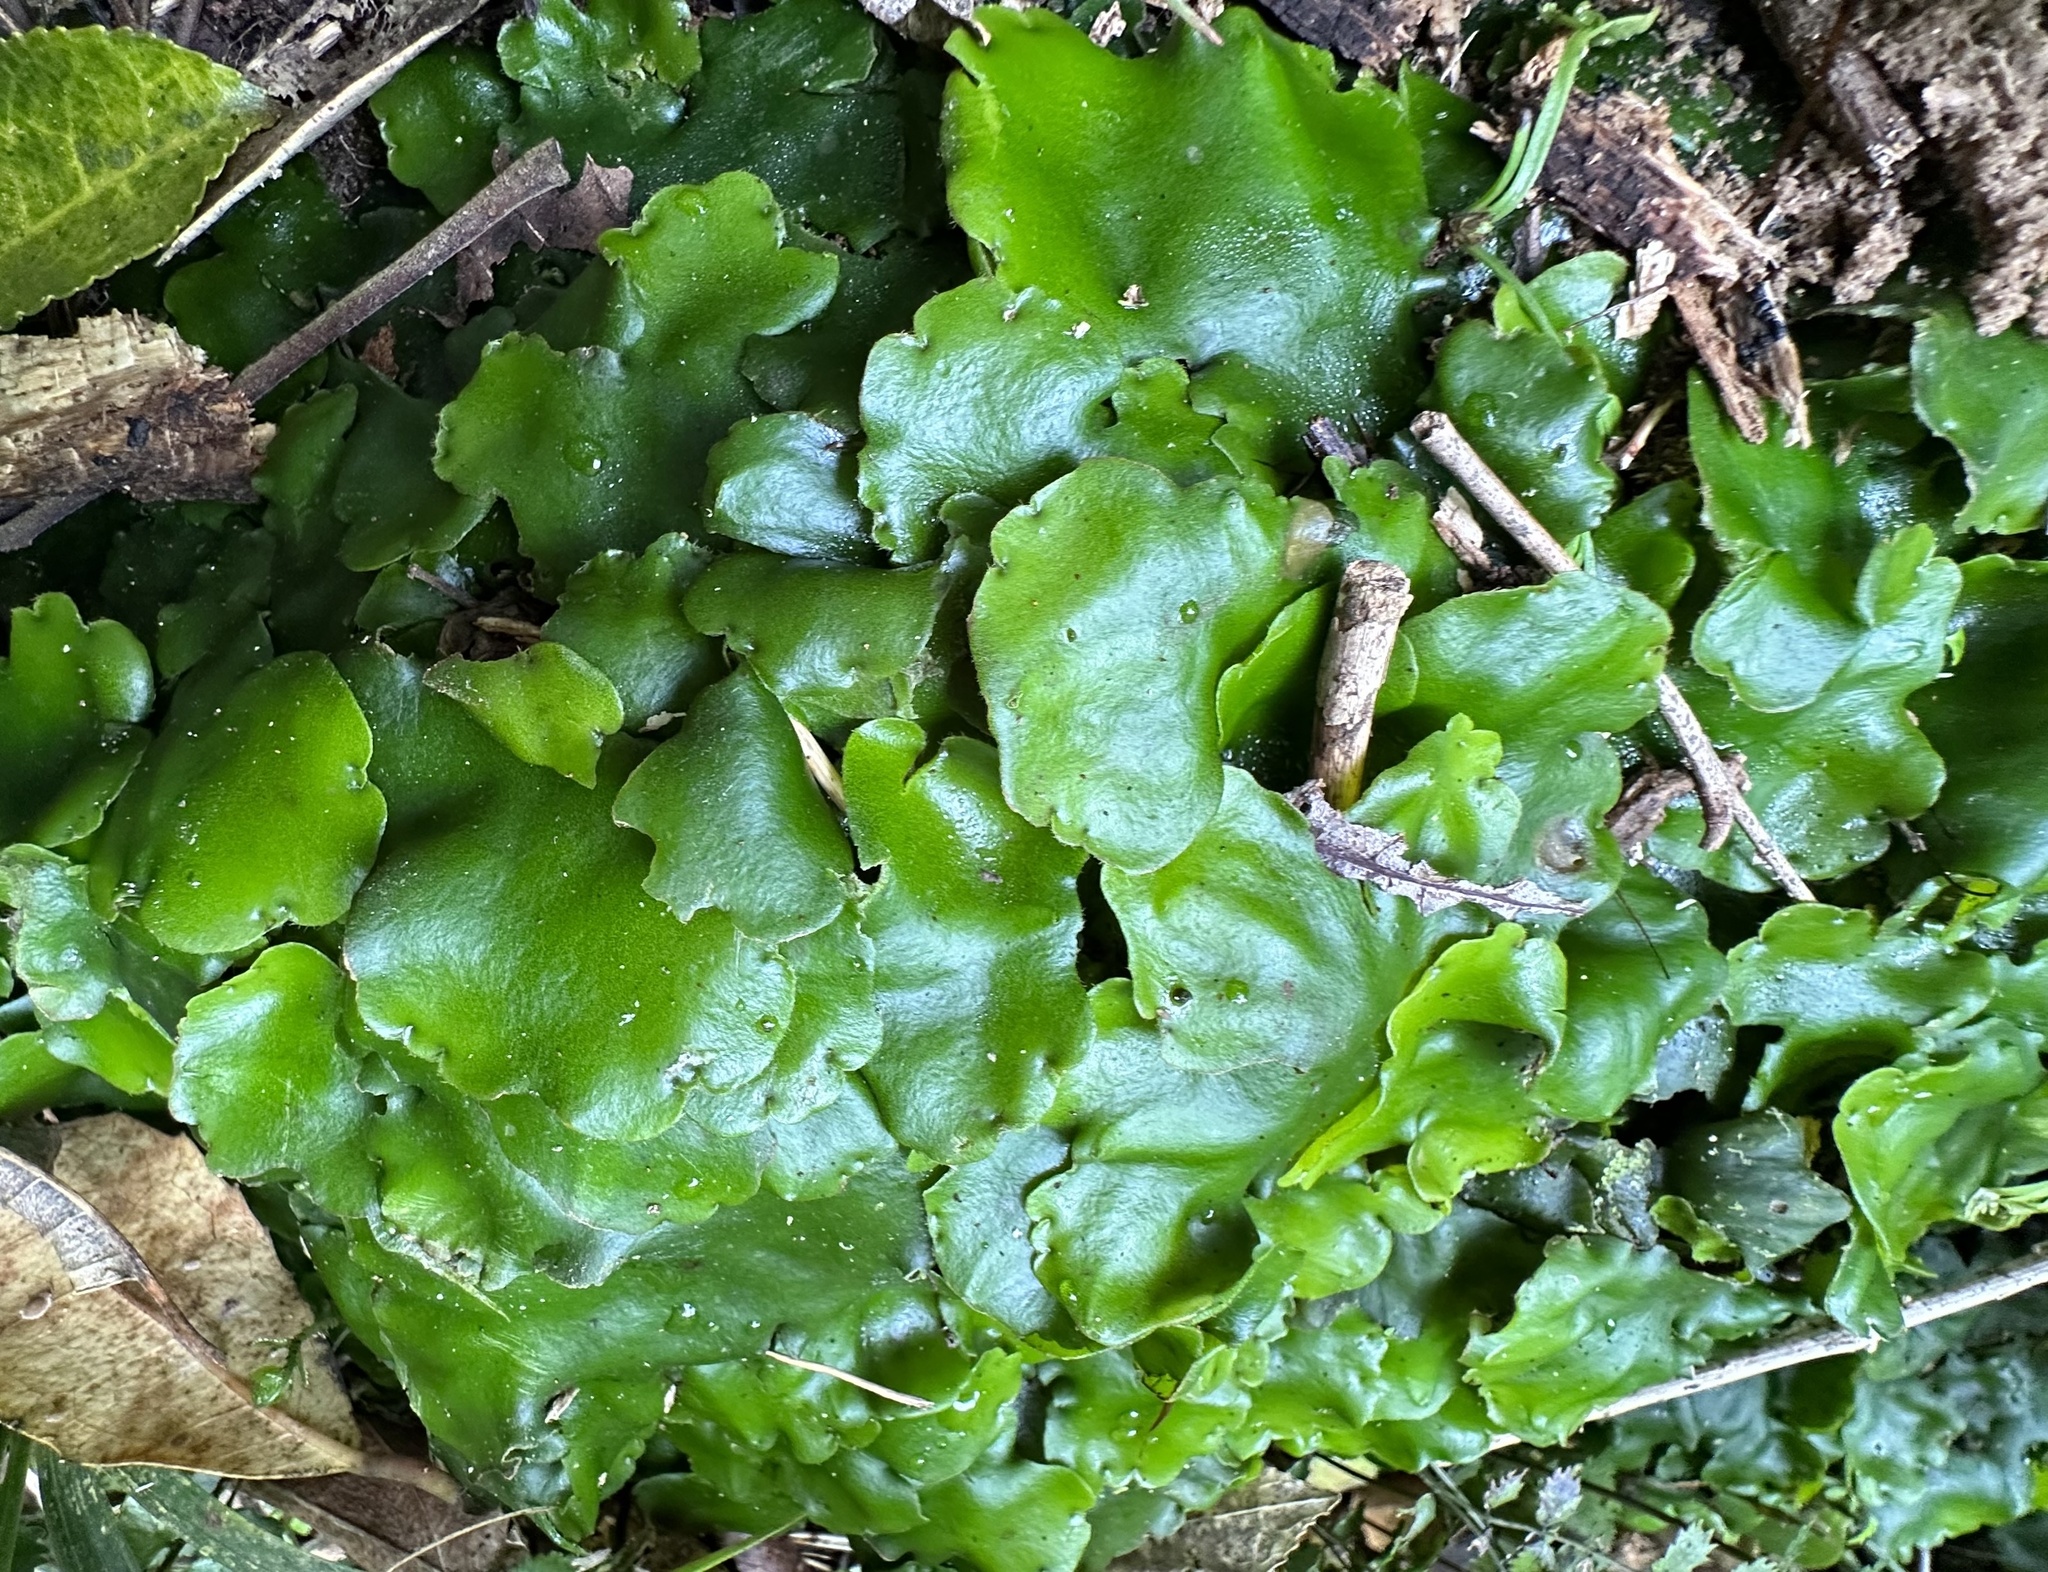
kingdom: Plantae
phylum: Marchantiophyta
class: Marchantiopsida
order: Marchantiales
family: Monocleaceae
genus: Monoclea
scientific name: Monoclea forsteri
